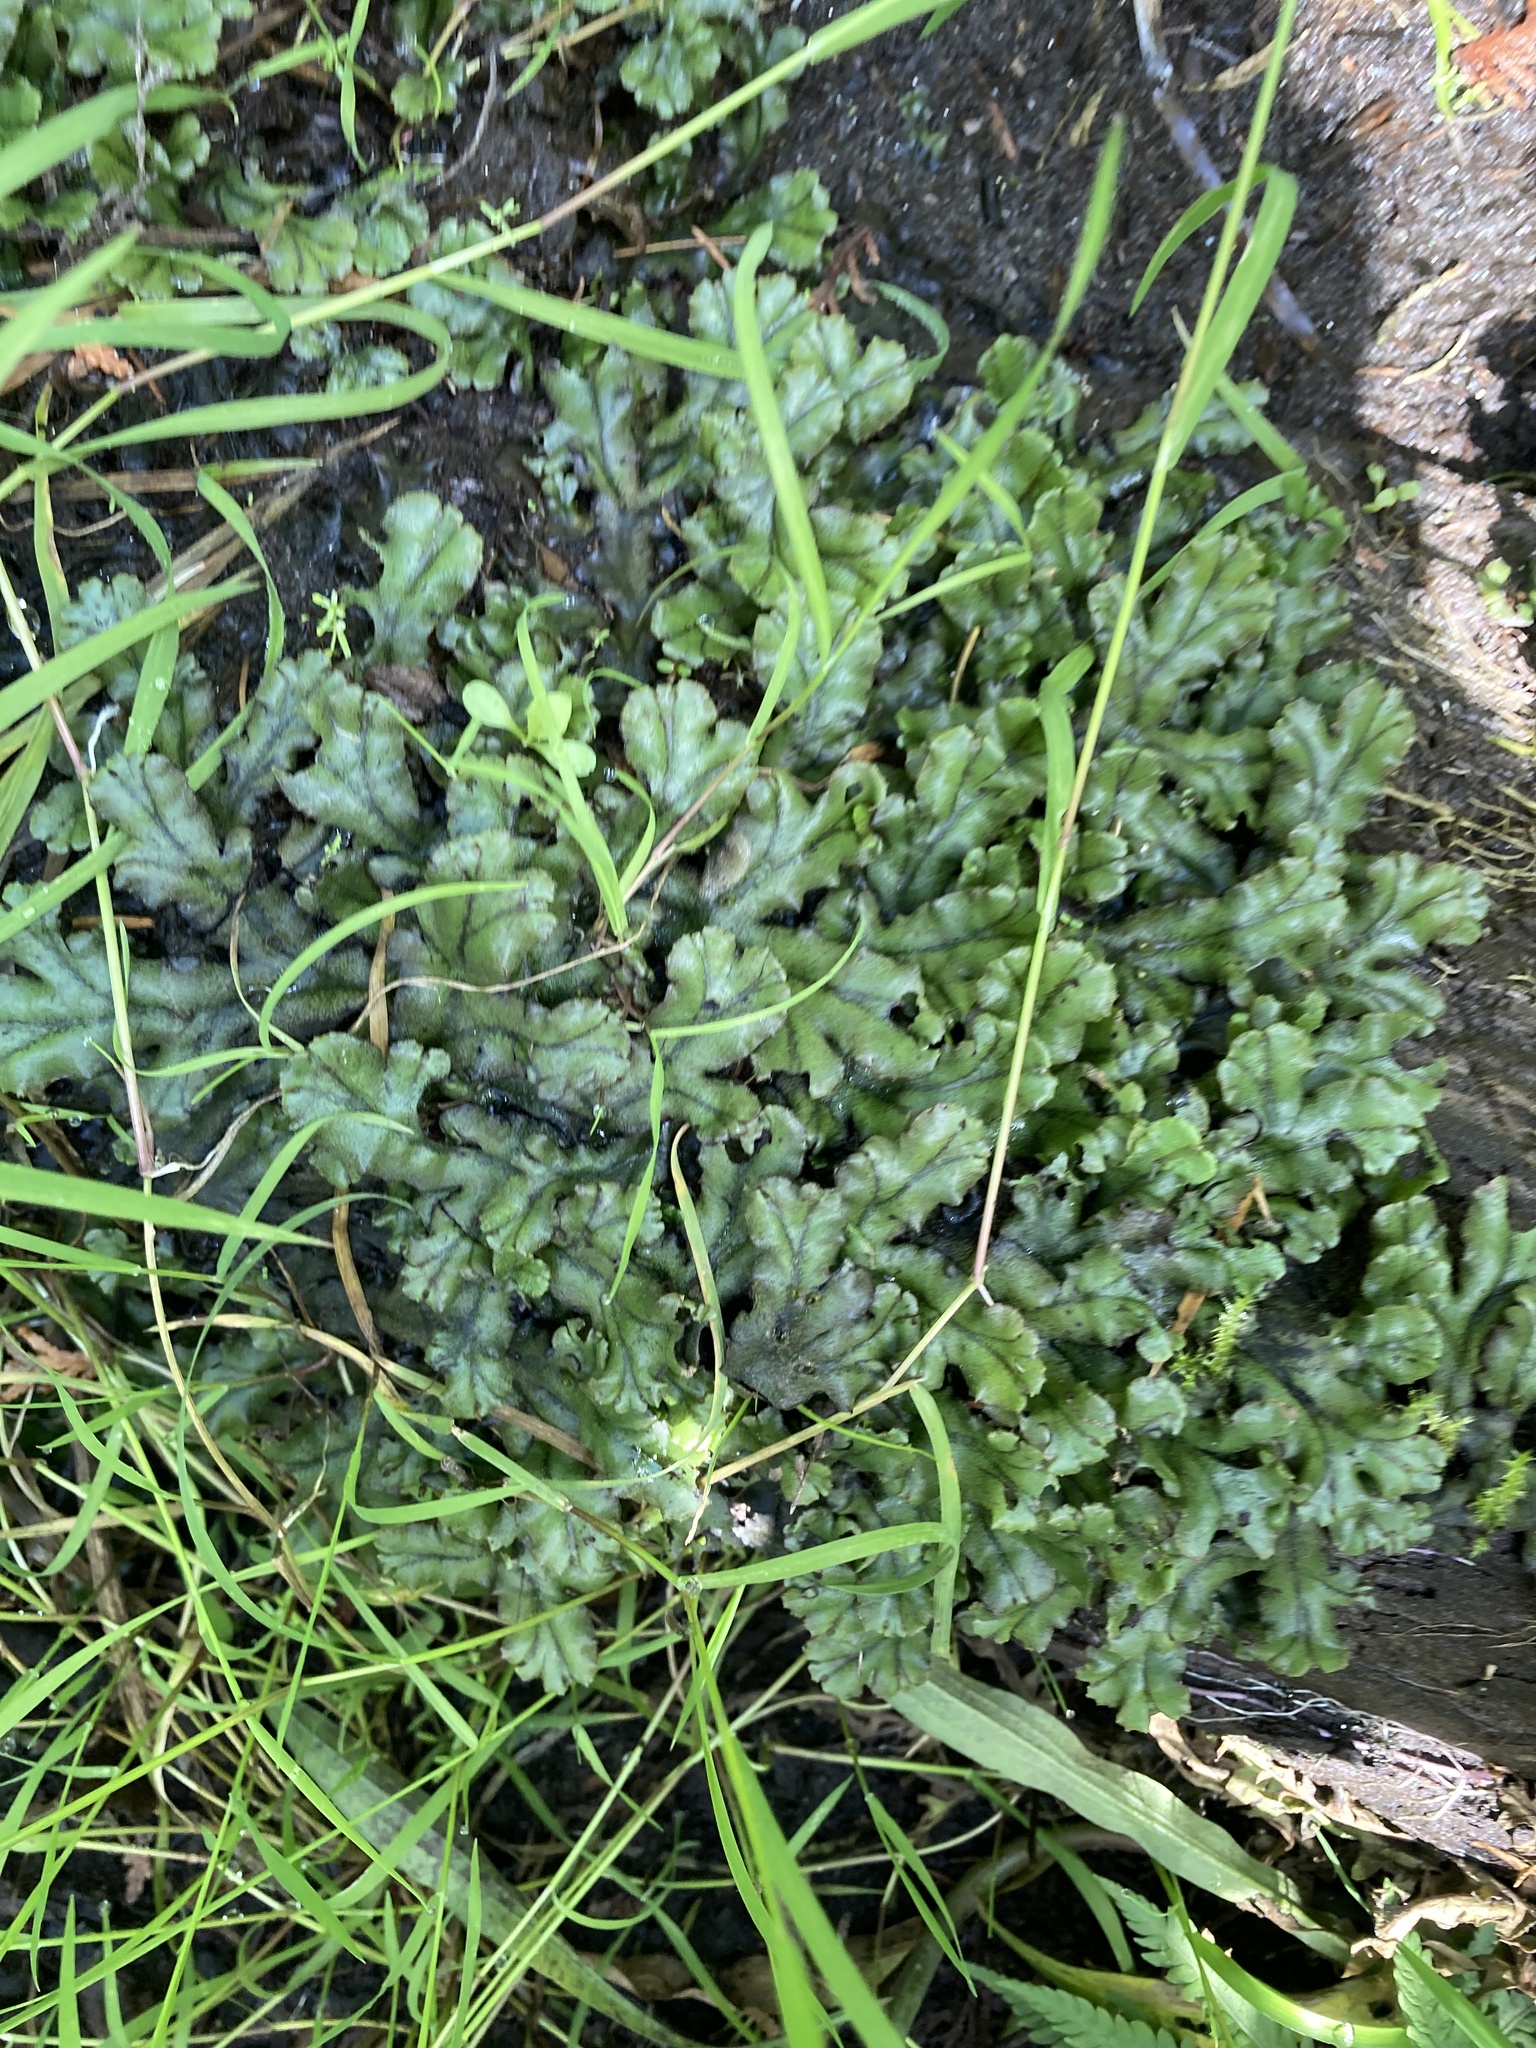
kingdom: Plantae
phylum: Marchantiophyta
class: Marchantiopsida
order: Marchantiales
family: Marchantiaceae
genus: Marchantia
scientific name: Marchantia polymorpha
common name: Common liverwort
